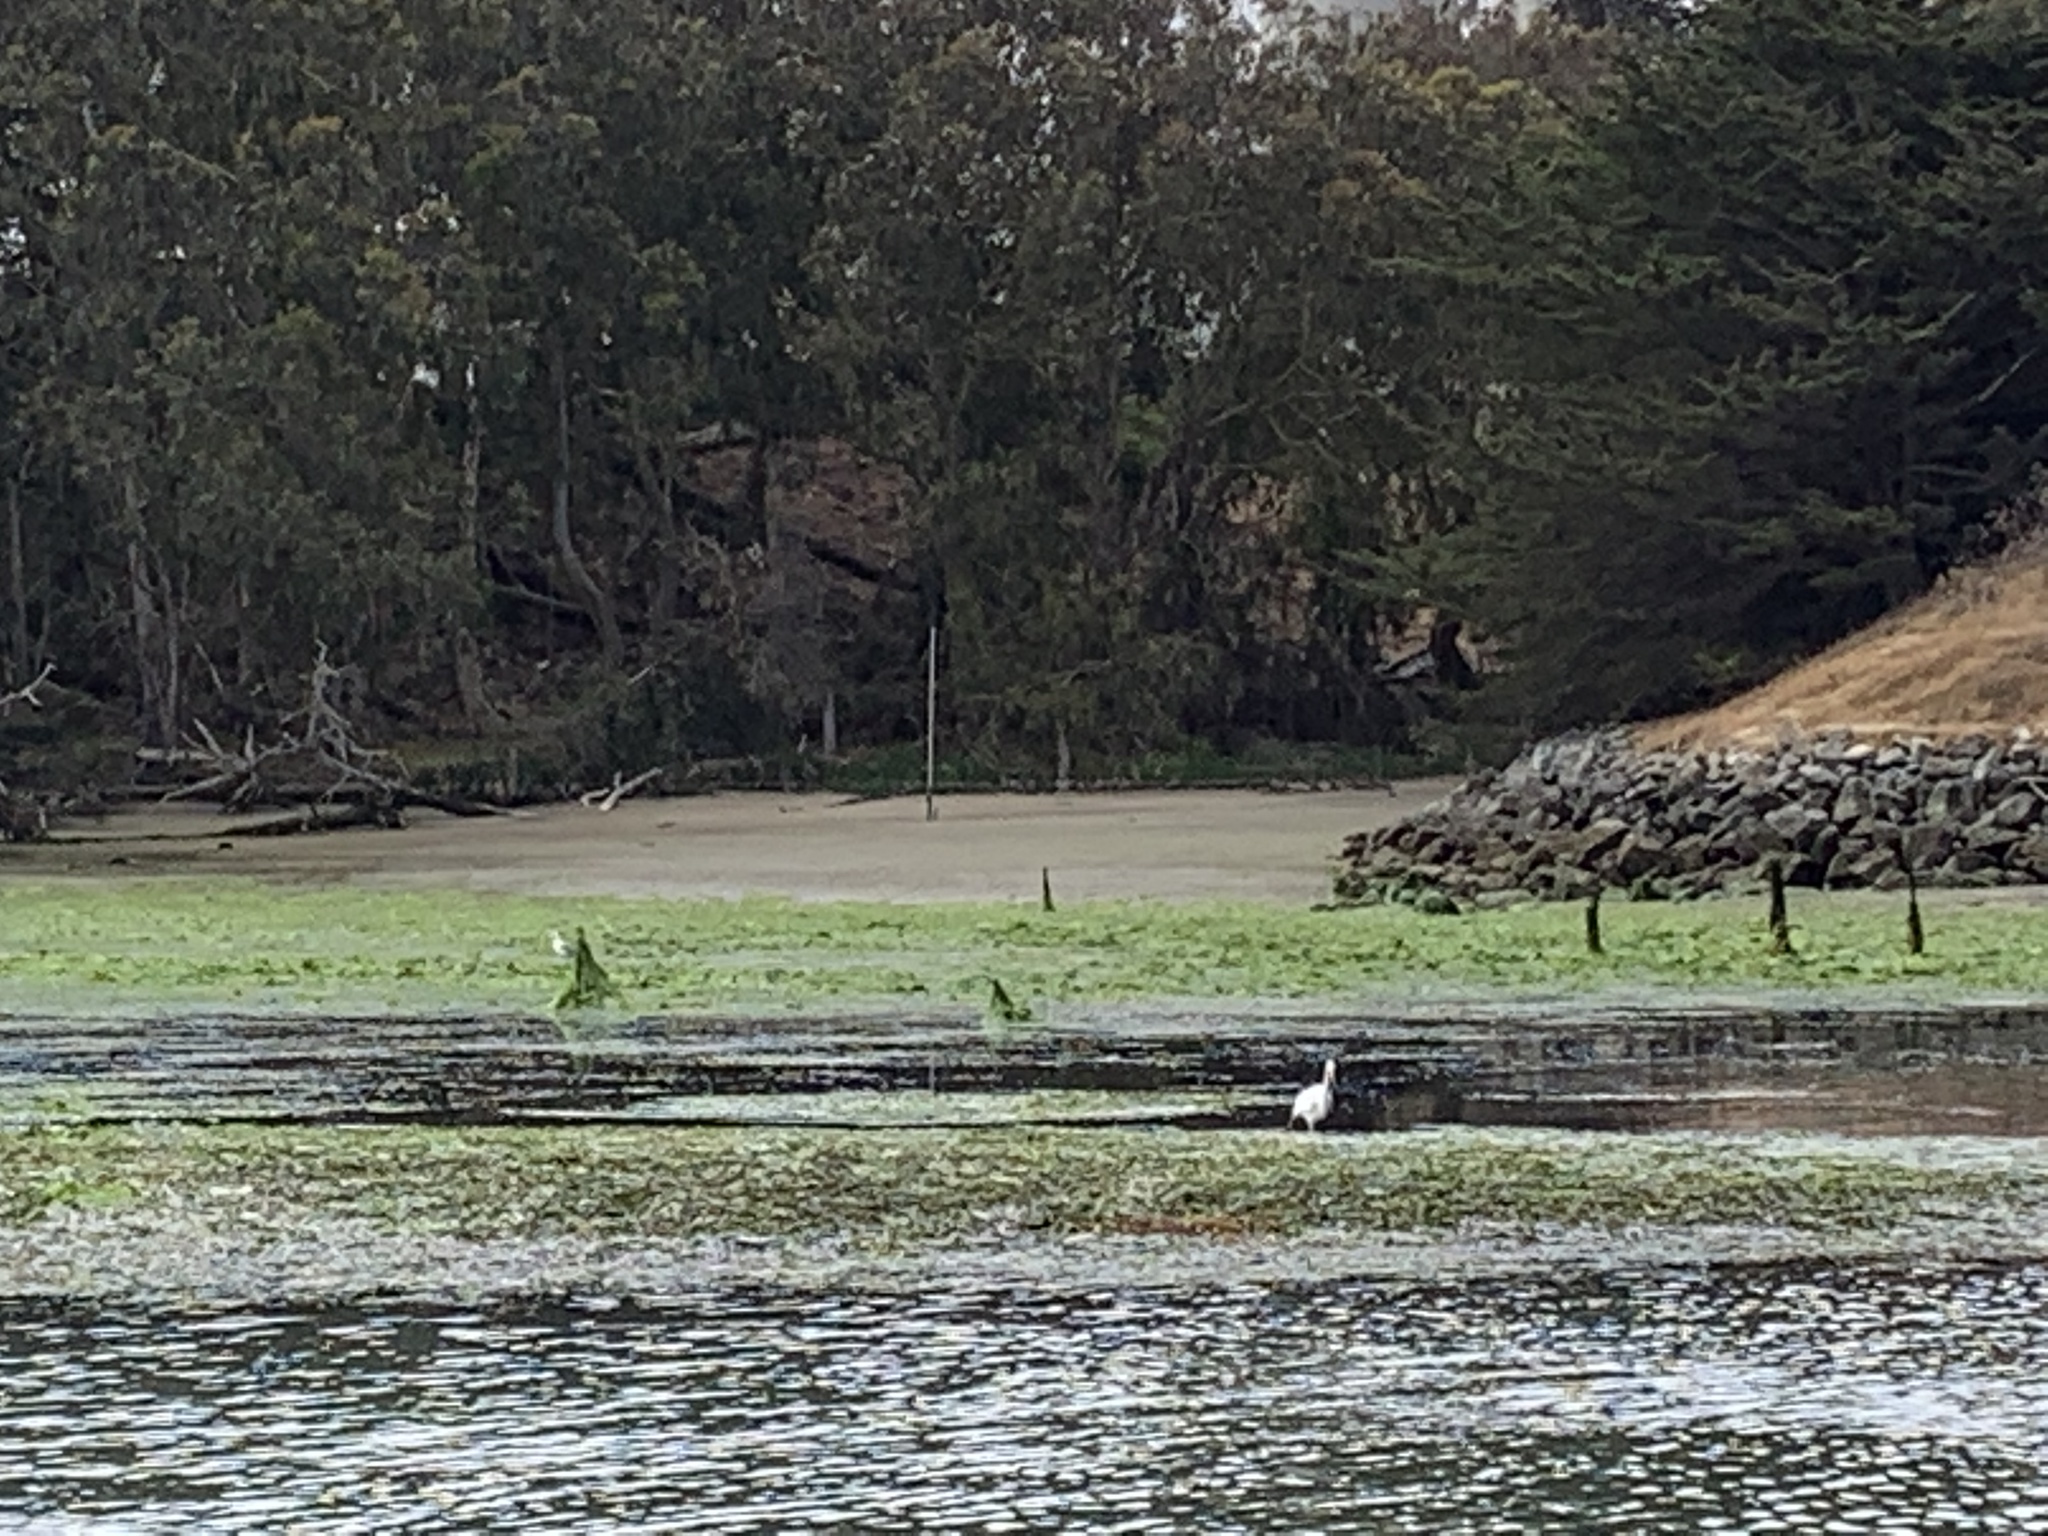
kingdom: Animalia
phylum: Chordata
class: Aves
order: Pelecaniformes
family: Ardeidae
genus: Ardea
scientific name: Ardea alba
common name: Great egret
